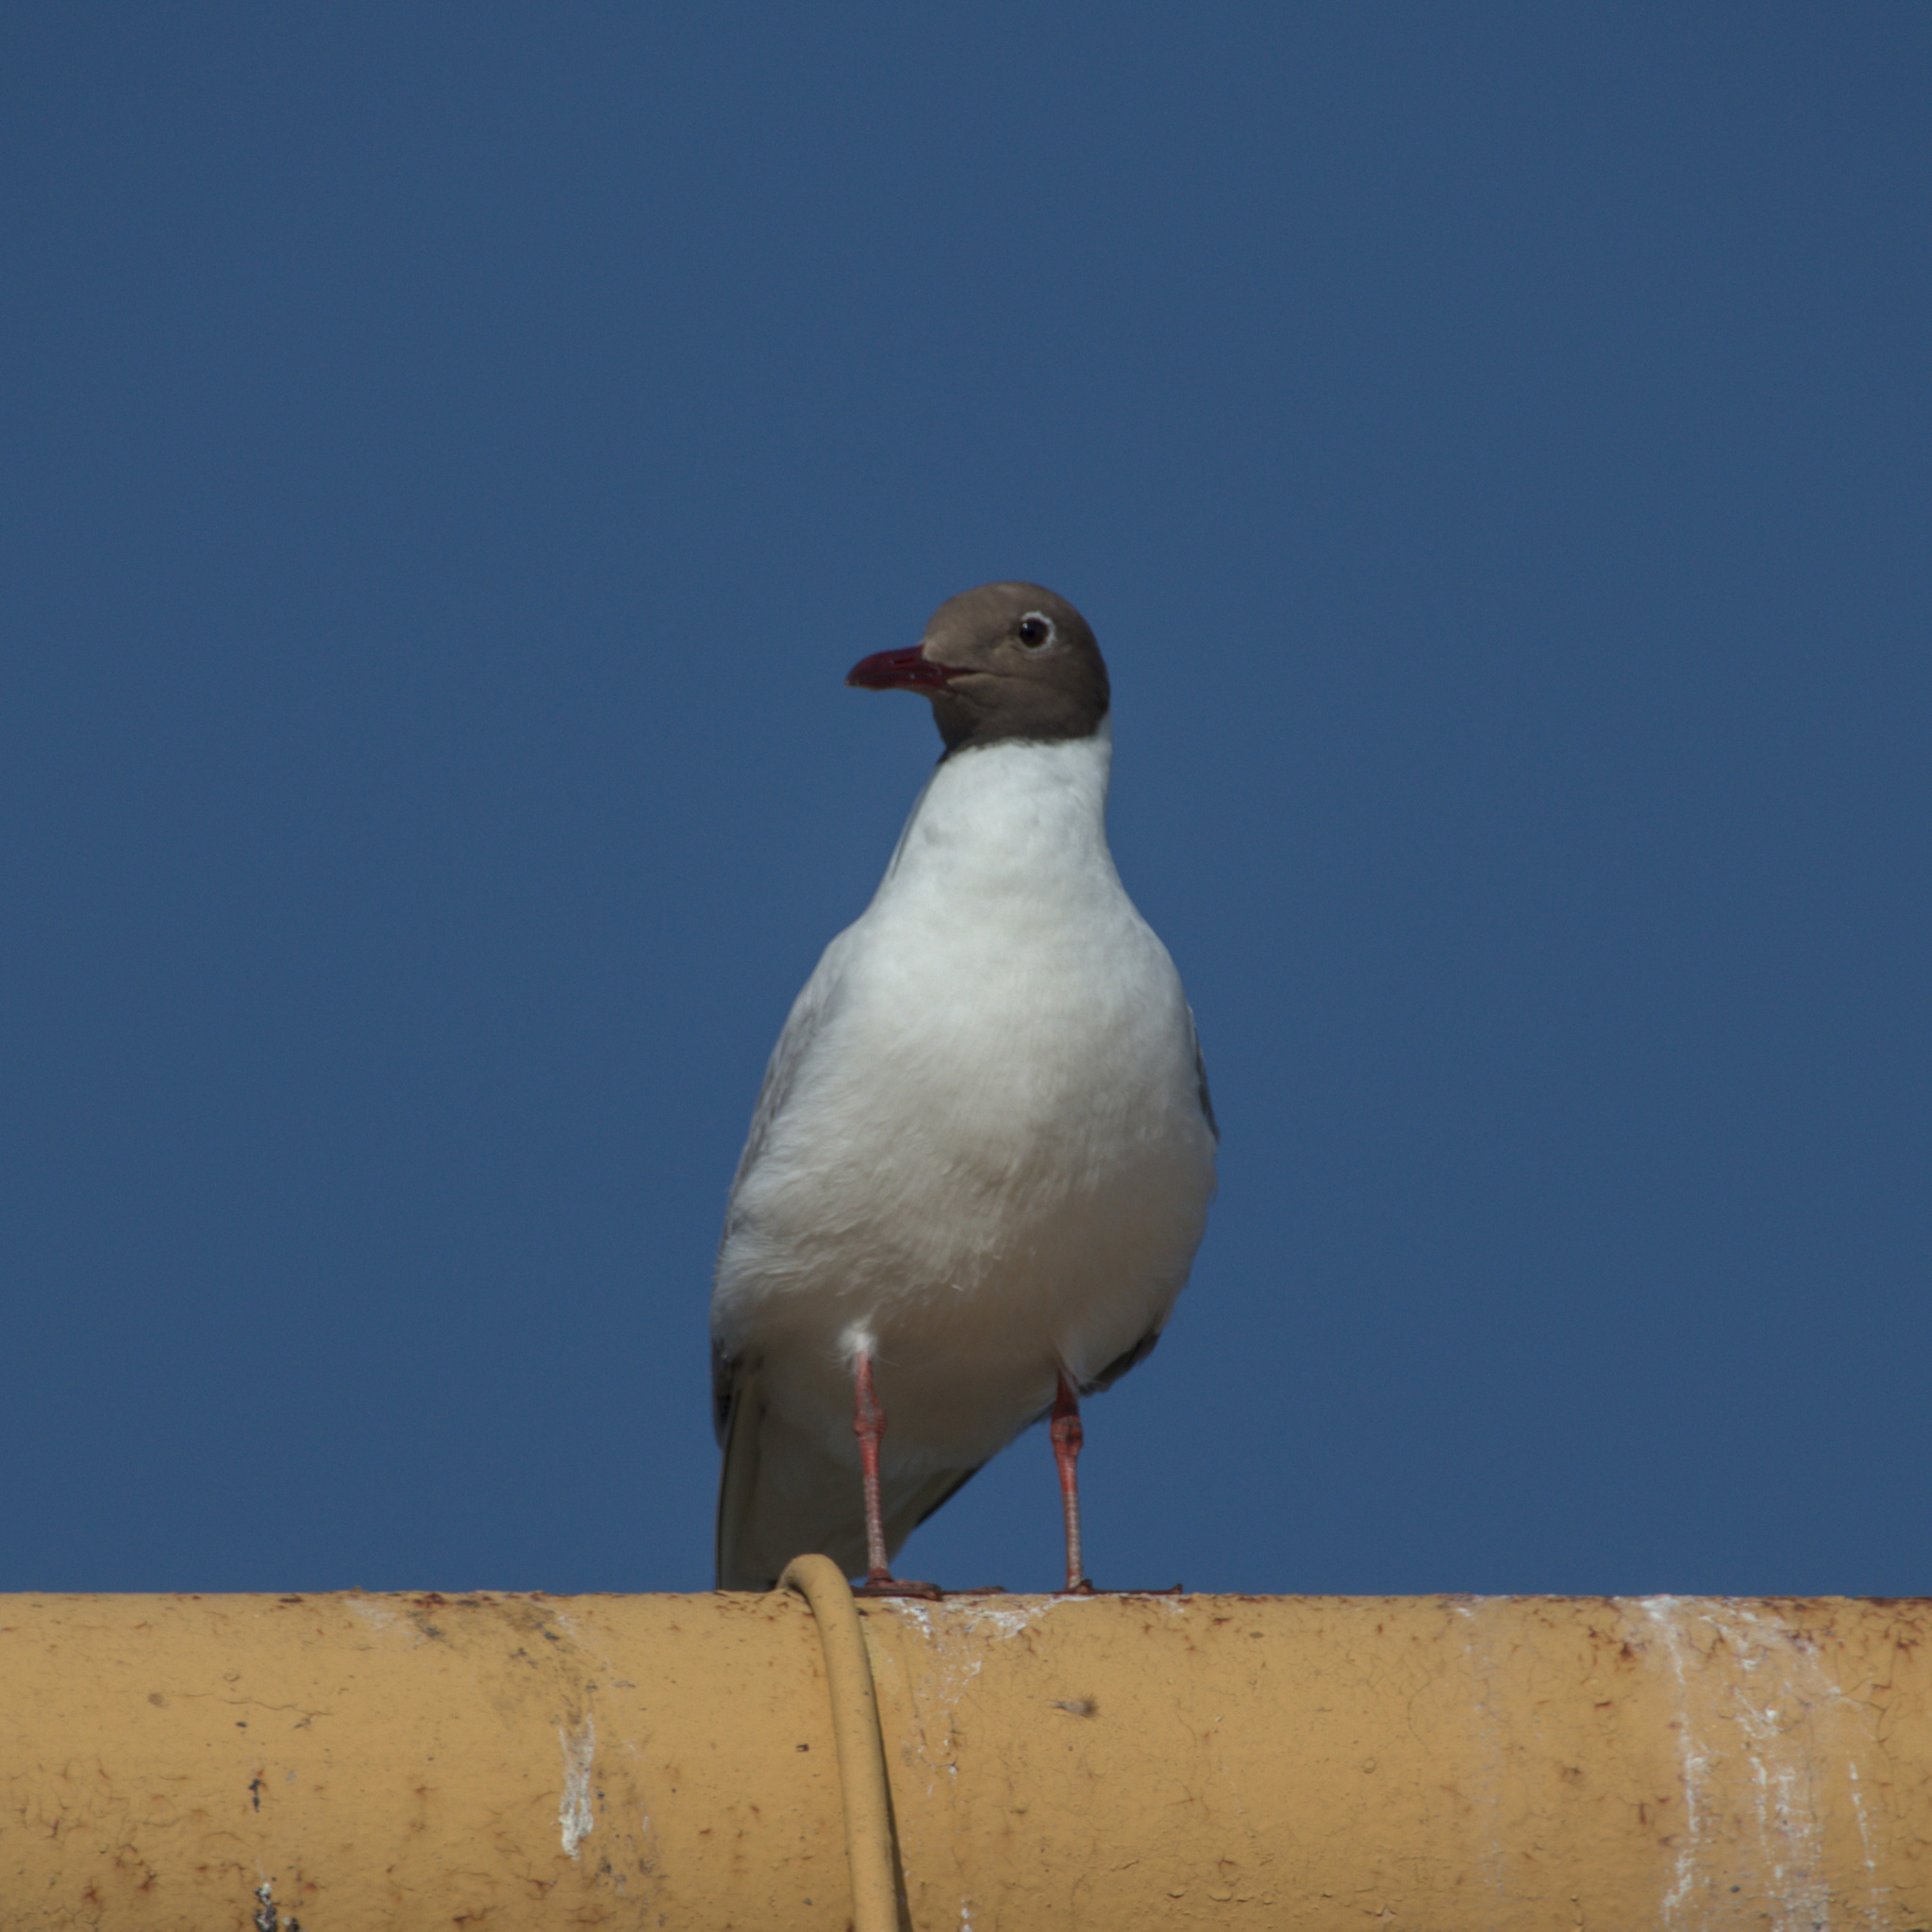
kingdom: Animalia
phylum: Chordata
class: Aves
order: Charadriiformes
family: Laridae
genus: Chroicocephalus
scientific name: Chroicocephalus ridibundus
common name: Black-headed gull
